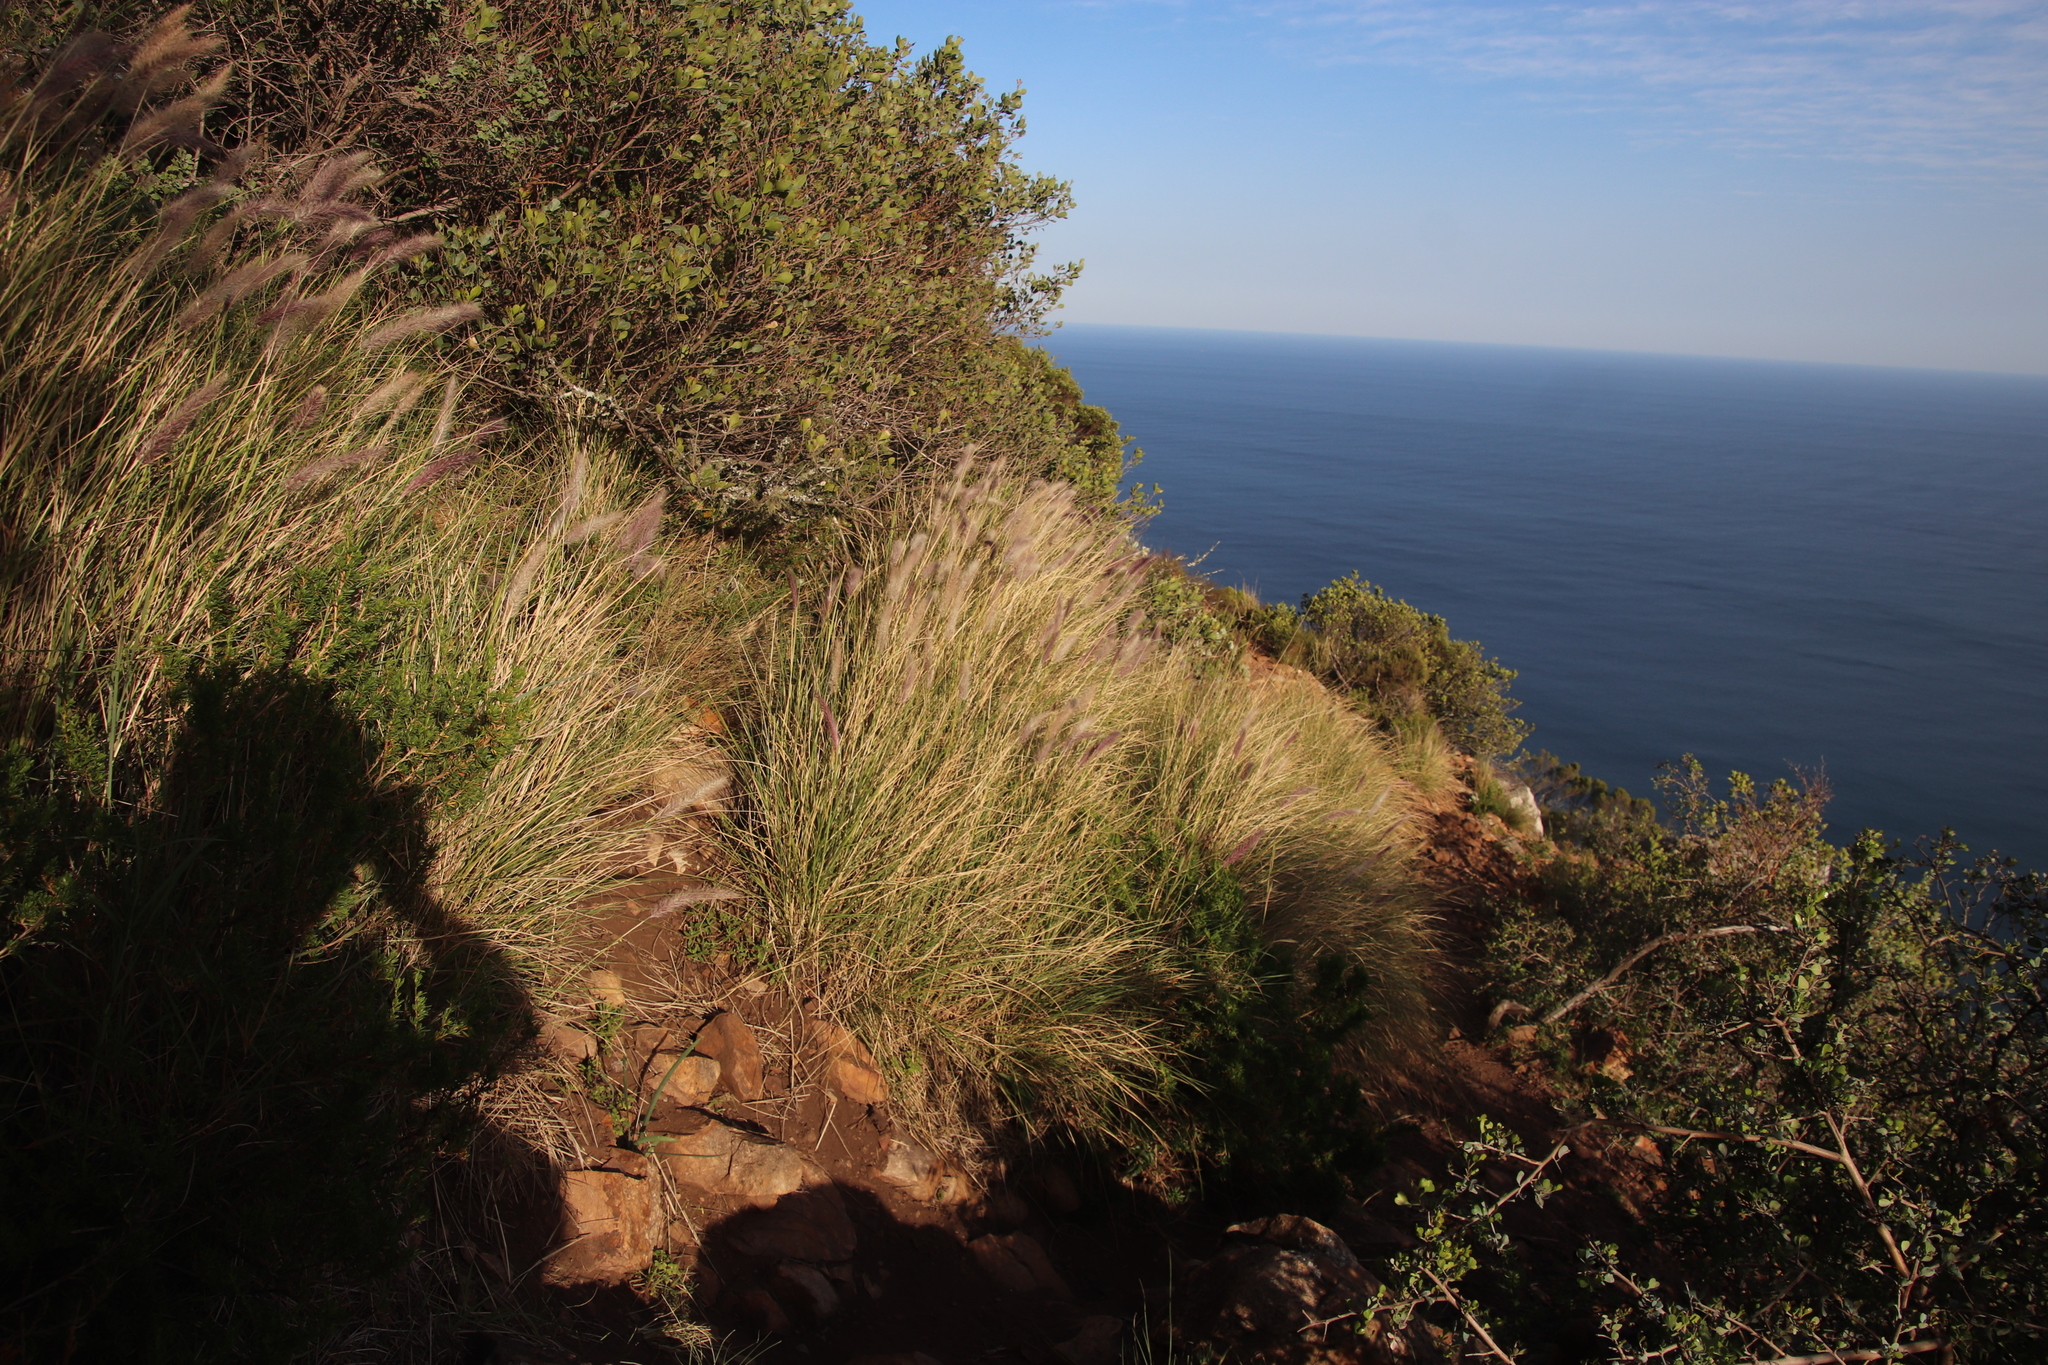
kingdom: Plantae
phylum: Tracheophyta
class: Liliopsida
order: Poales
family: Poaceae
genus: Cenchrus
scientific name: Cenchrus setaceus
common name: Crimson fountaingrass
